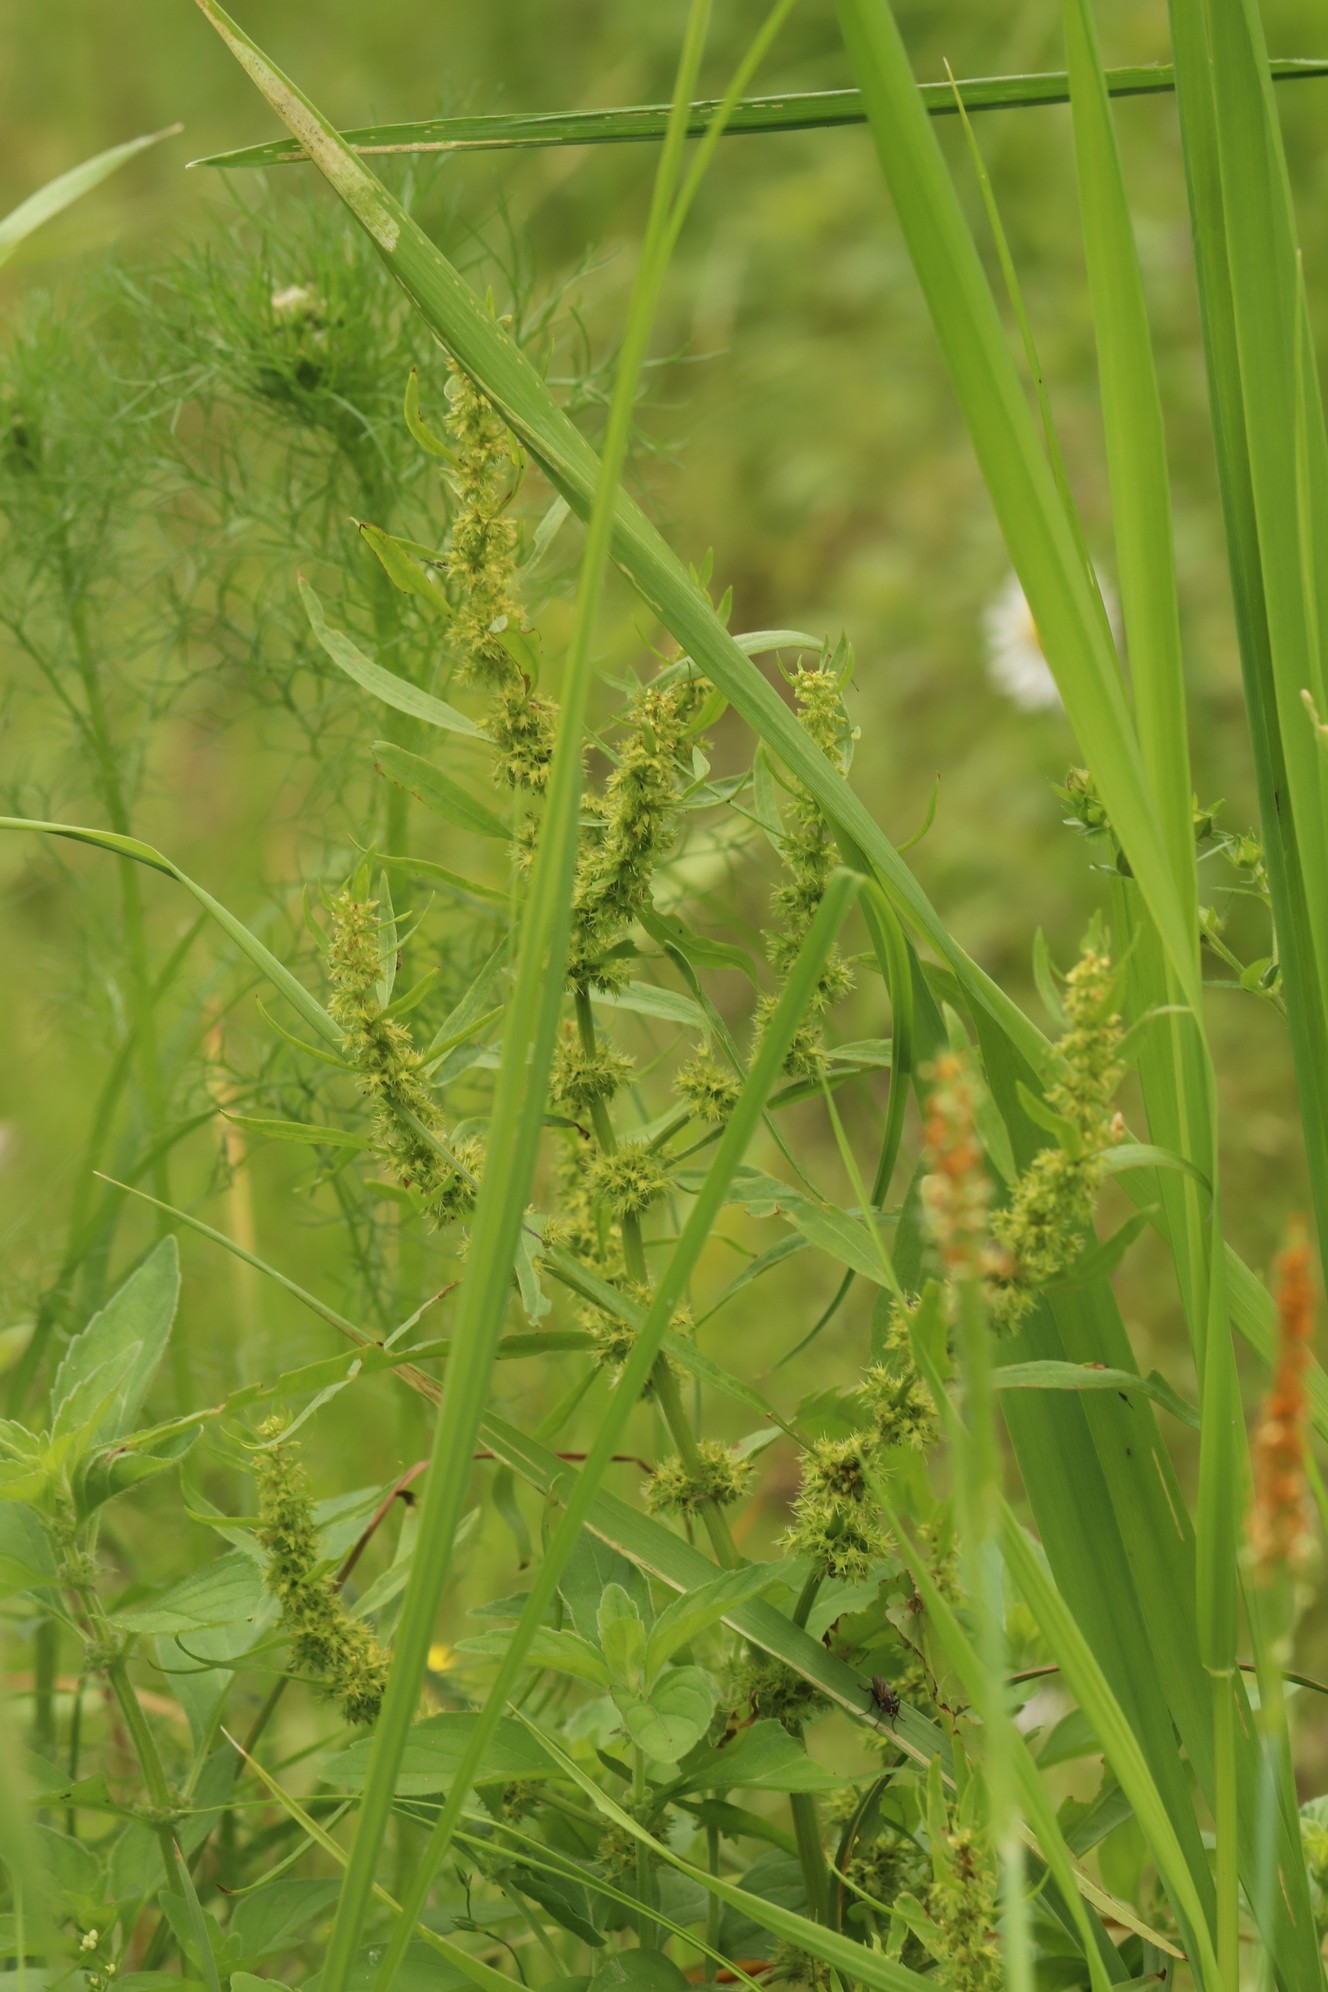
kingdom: Plantae
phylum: Tracheophyta
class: Magnoliopsida
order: Caryophyllales
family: Polygonaceae
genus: Rumex
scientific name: Rumex maritimus
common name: Golden dock
